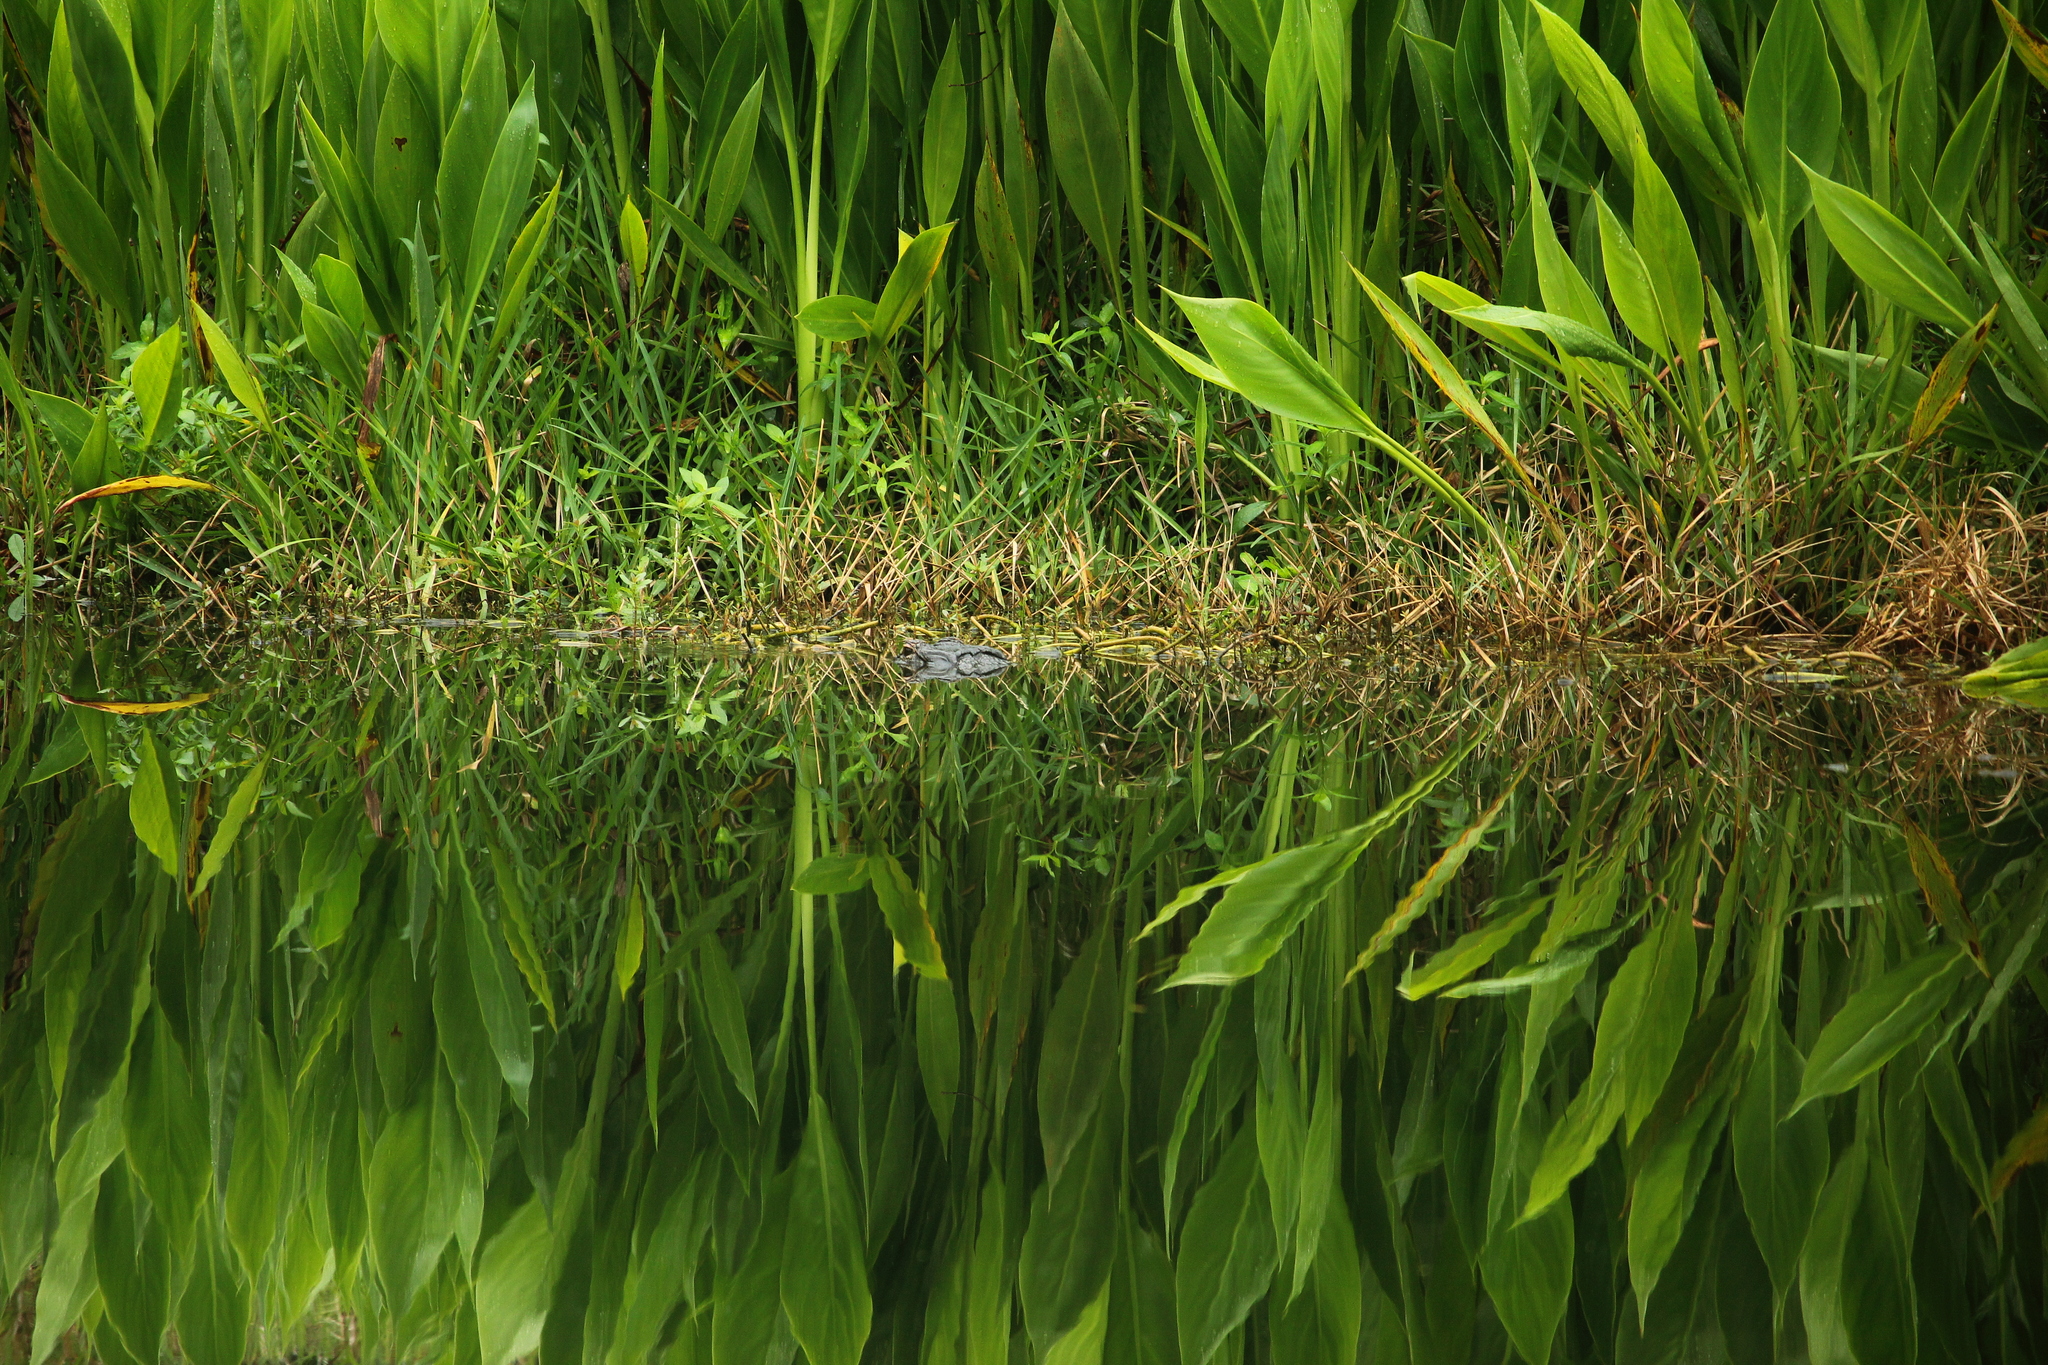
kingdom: Animalia
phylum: Chordata
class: Crocodylia
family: Alligatoridae
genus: Alligator
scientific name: Alligator mississippiensis
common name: American alligator
